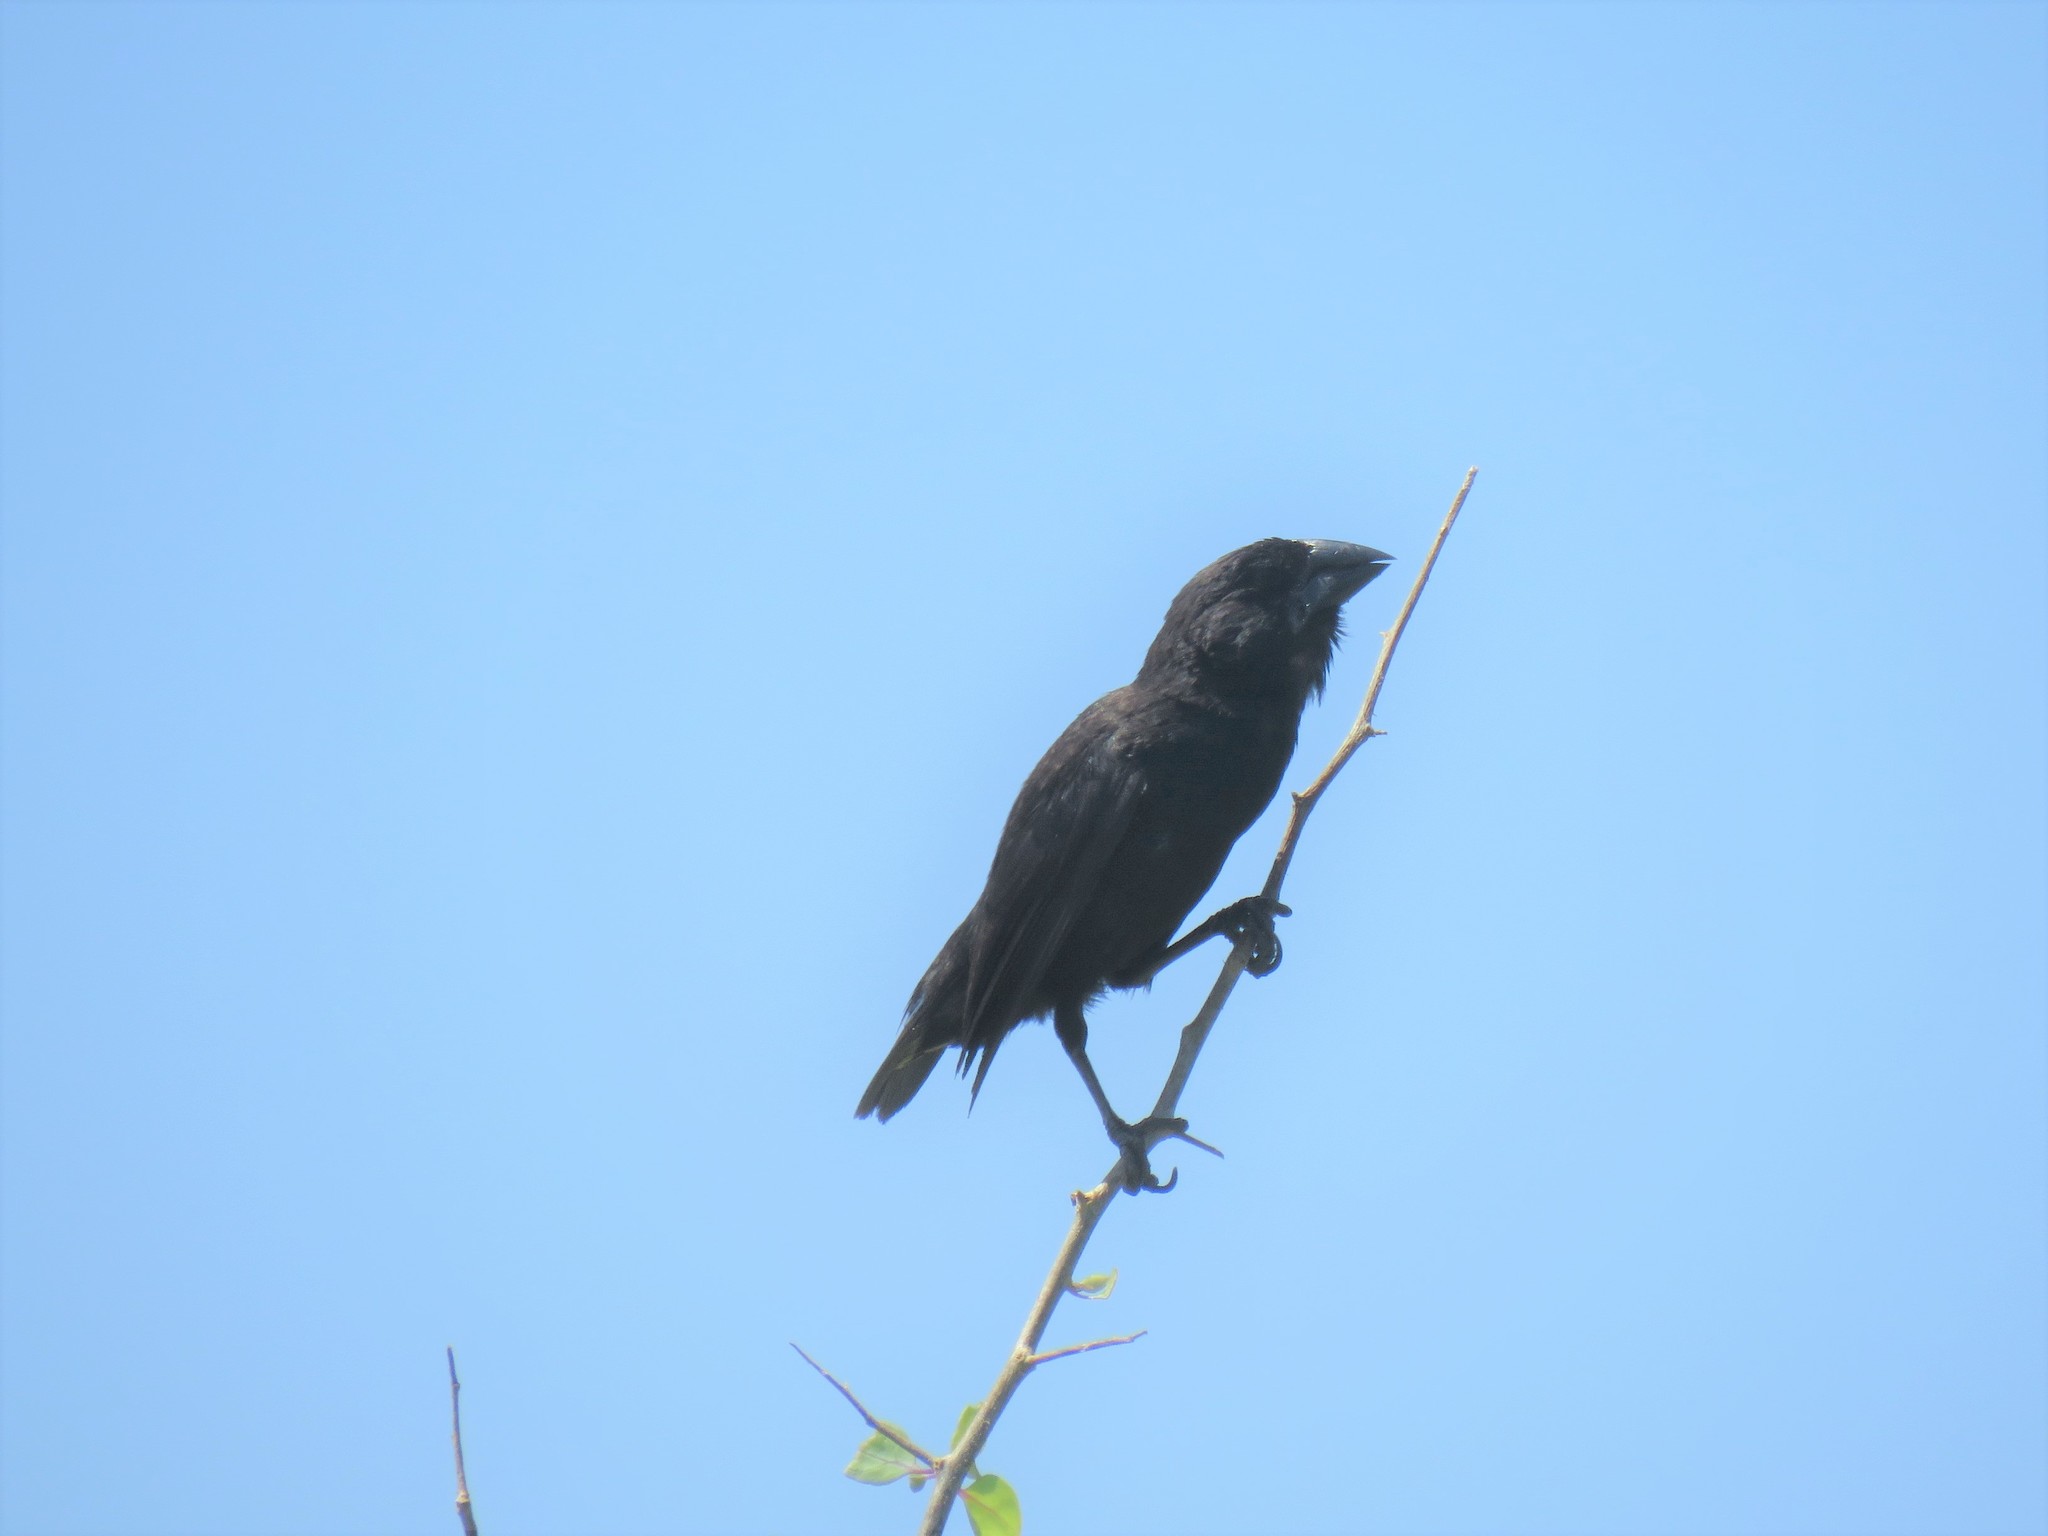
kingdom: Animalia
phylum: Chordata
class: Aves
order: Passeriformes
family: Thraupidae
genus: Geospiza
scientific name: Geospiza conirostris
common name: Large cactus finch
